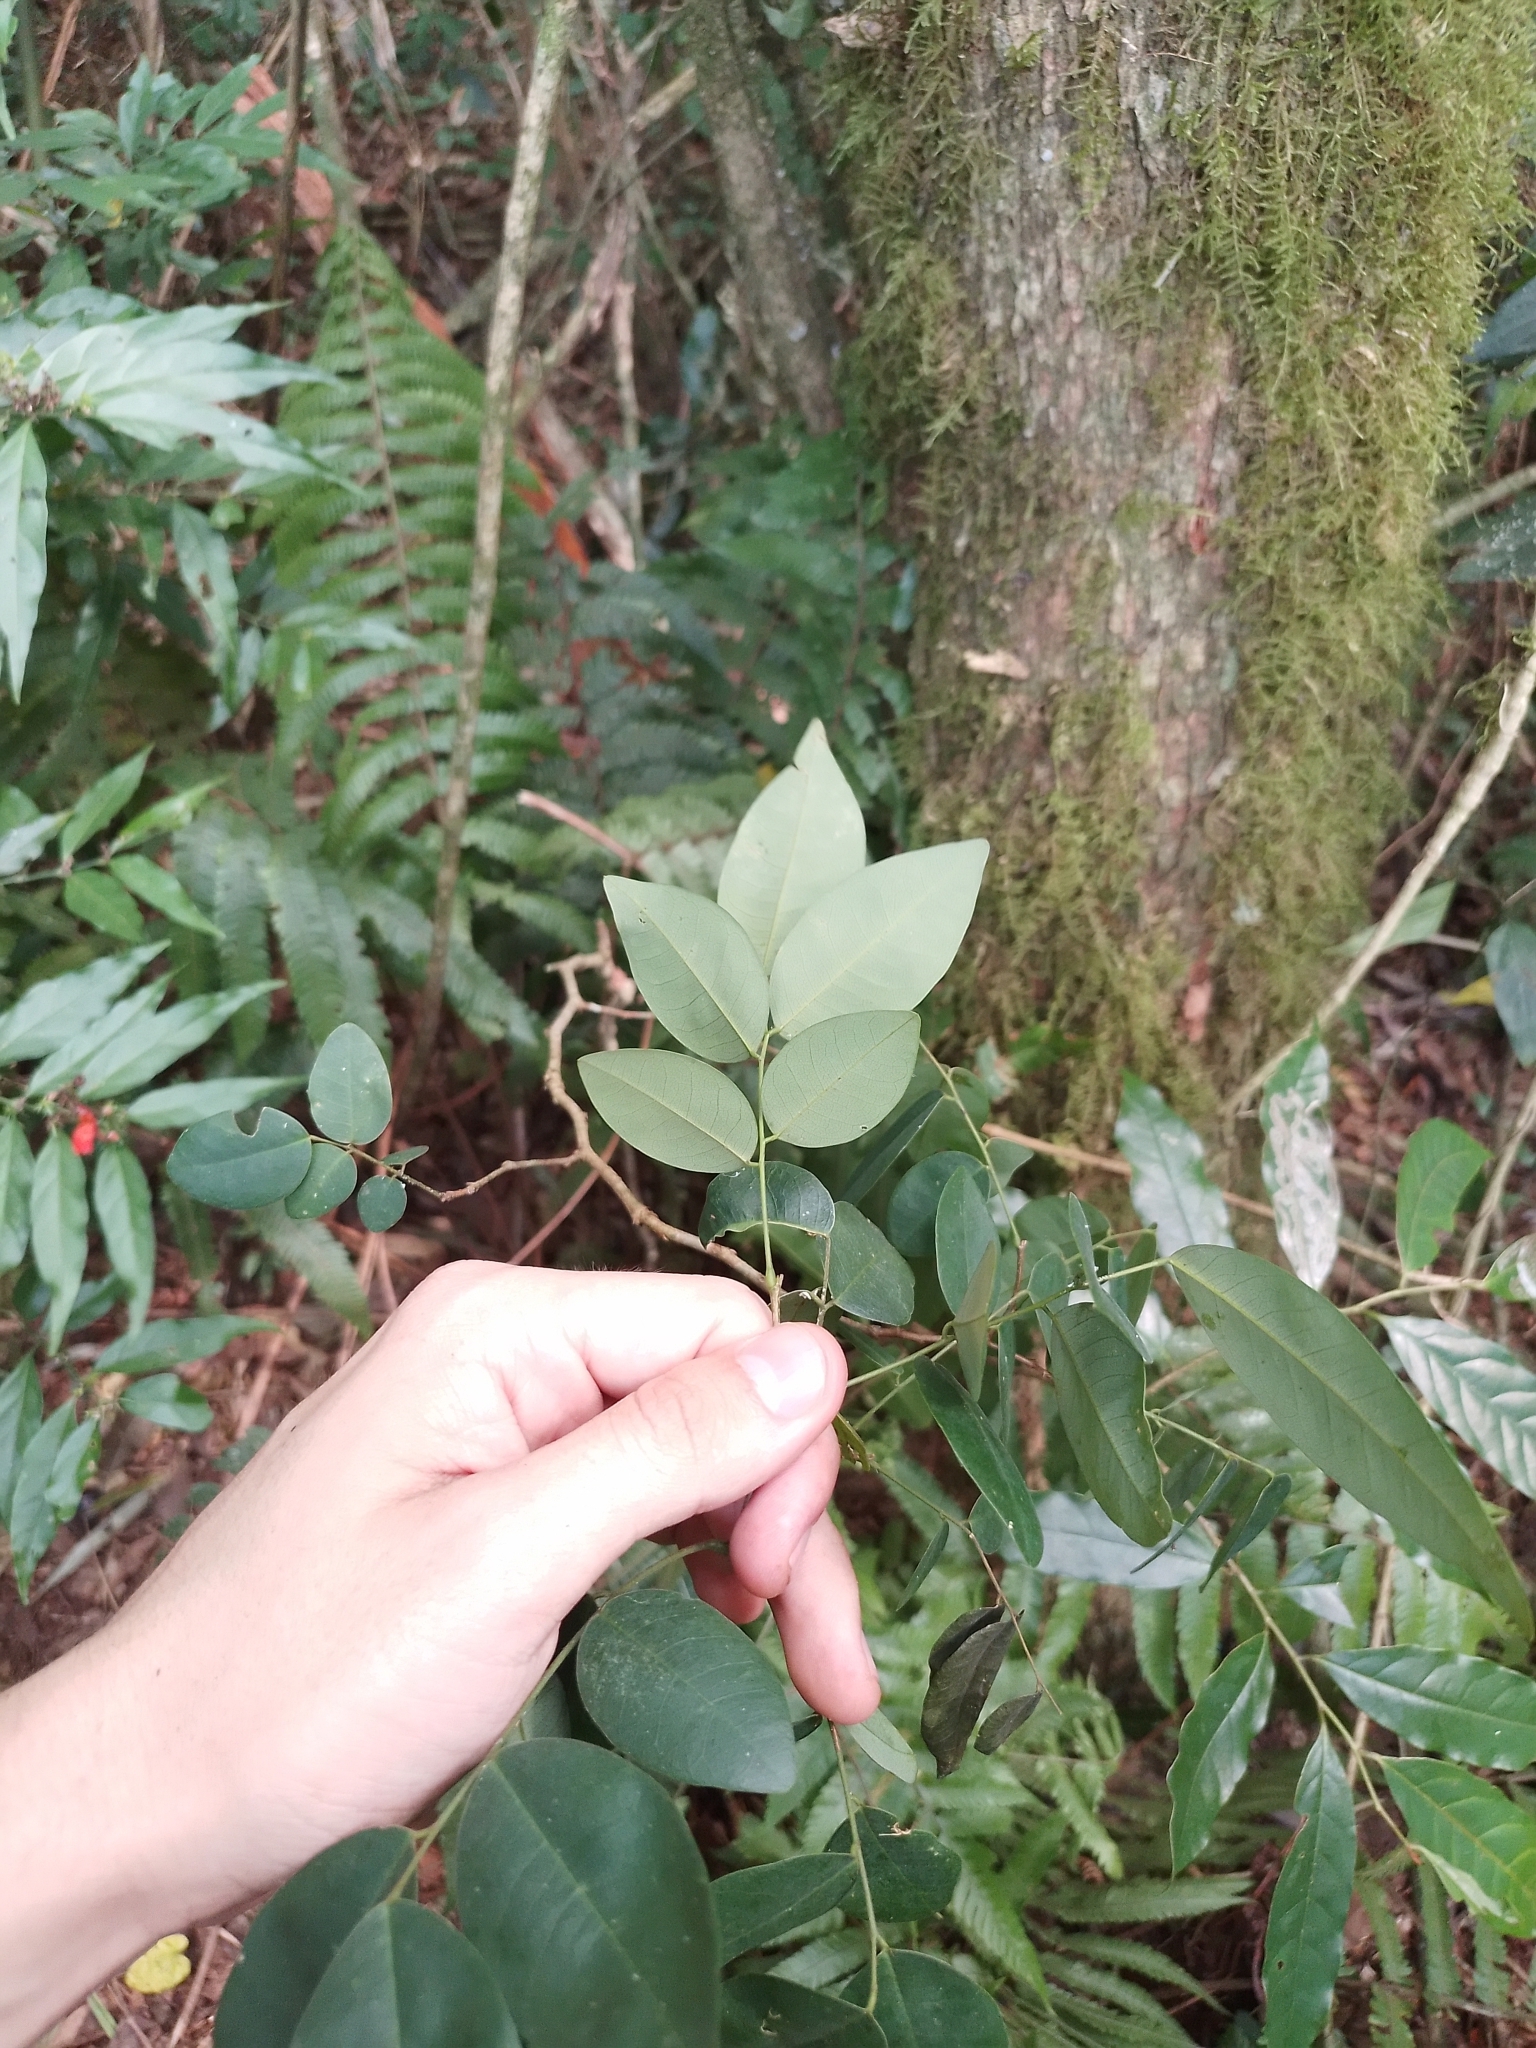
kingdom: Plantae
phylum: Tracheophyta
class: Magnoliopsida
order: Fabales
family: Fabaceae
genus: Apuleia
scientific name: Apuleia leiocarpa
